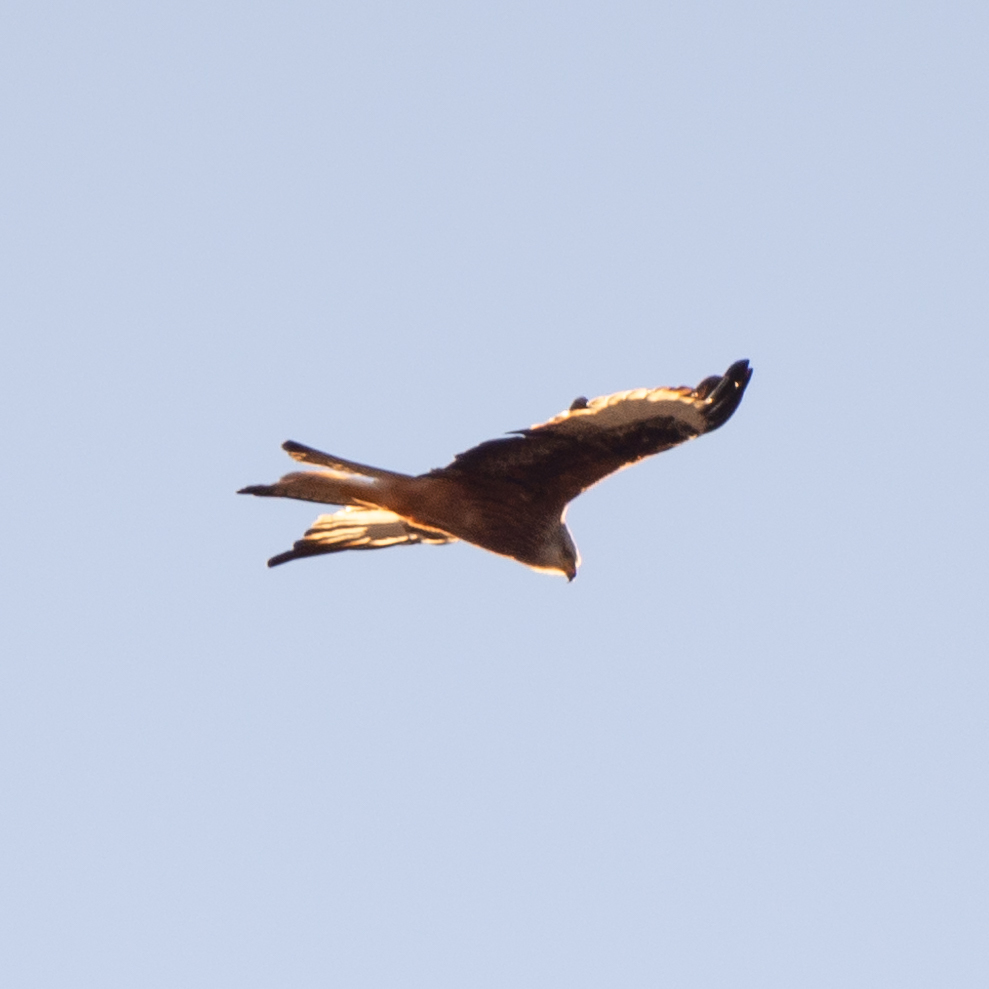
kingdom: Animalia
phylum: Chordata
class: Aves
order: Accipitriformes
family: Accipitridae
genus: Milvus
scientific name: Milvus milvus
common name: Red kite
